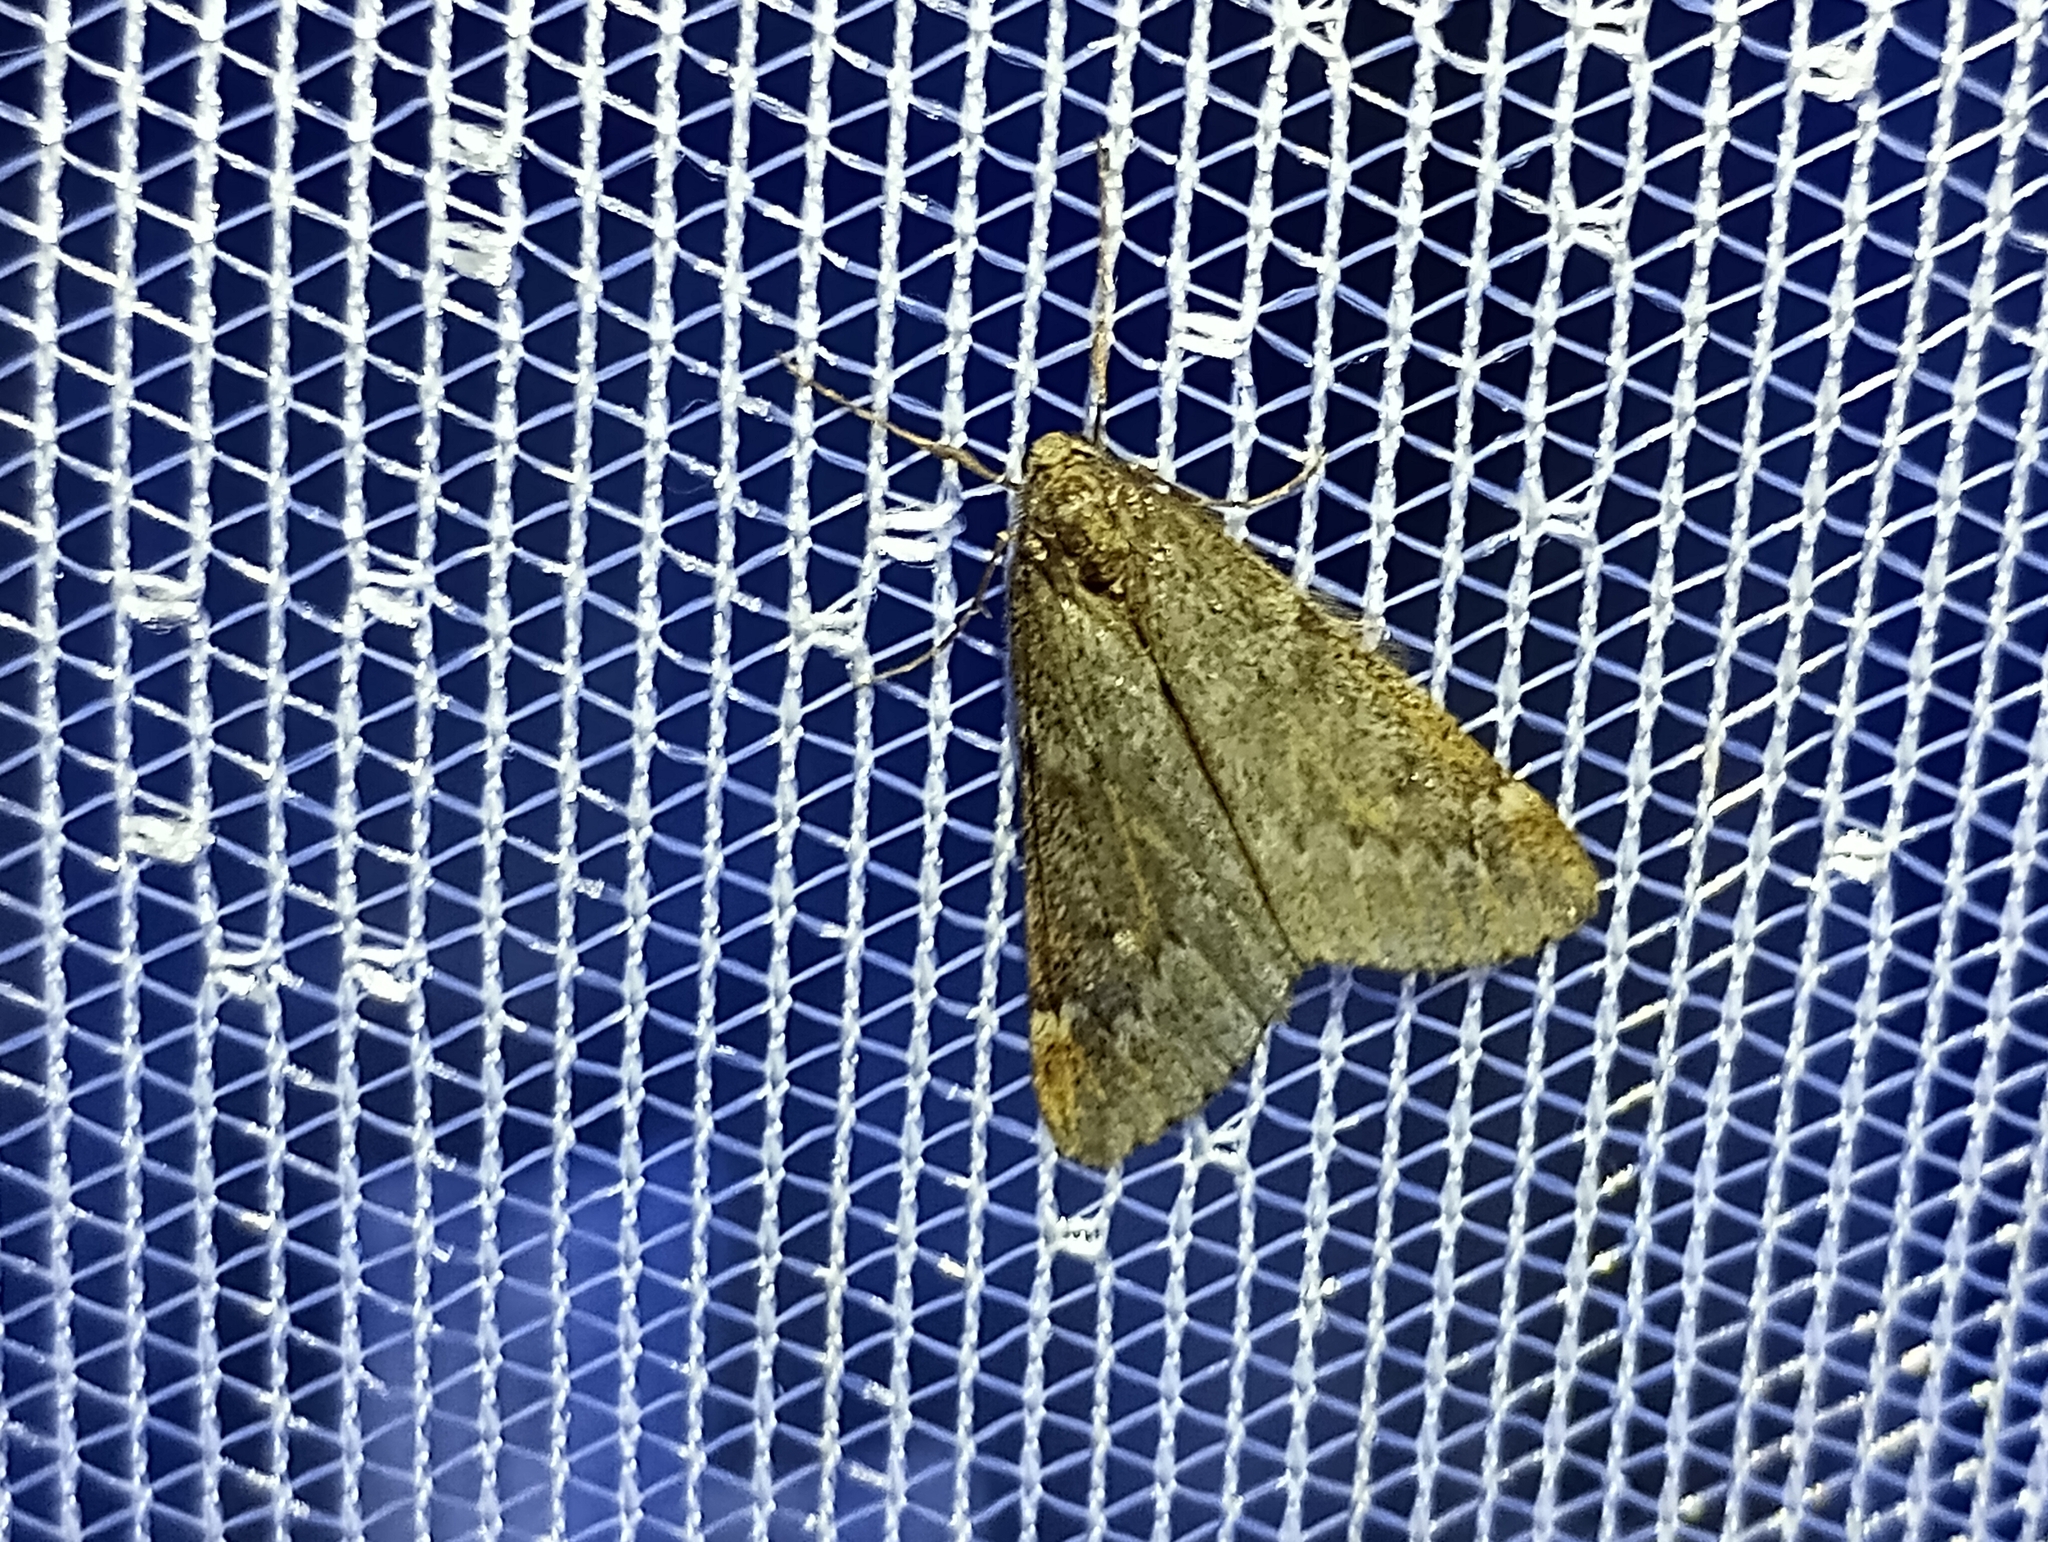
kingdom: Animalia
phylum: Arthropoda
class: Insecta
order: Lepidoptera
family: Geometridae
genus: Alsophila
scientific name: Alsophila aescularia
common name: March moth
